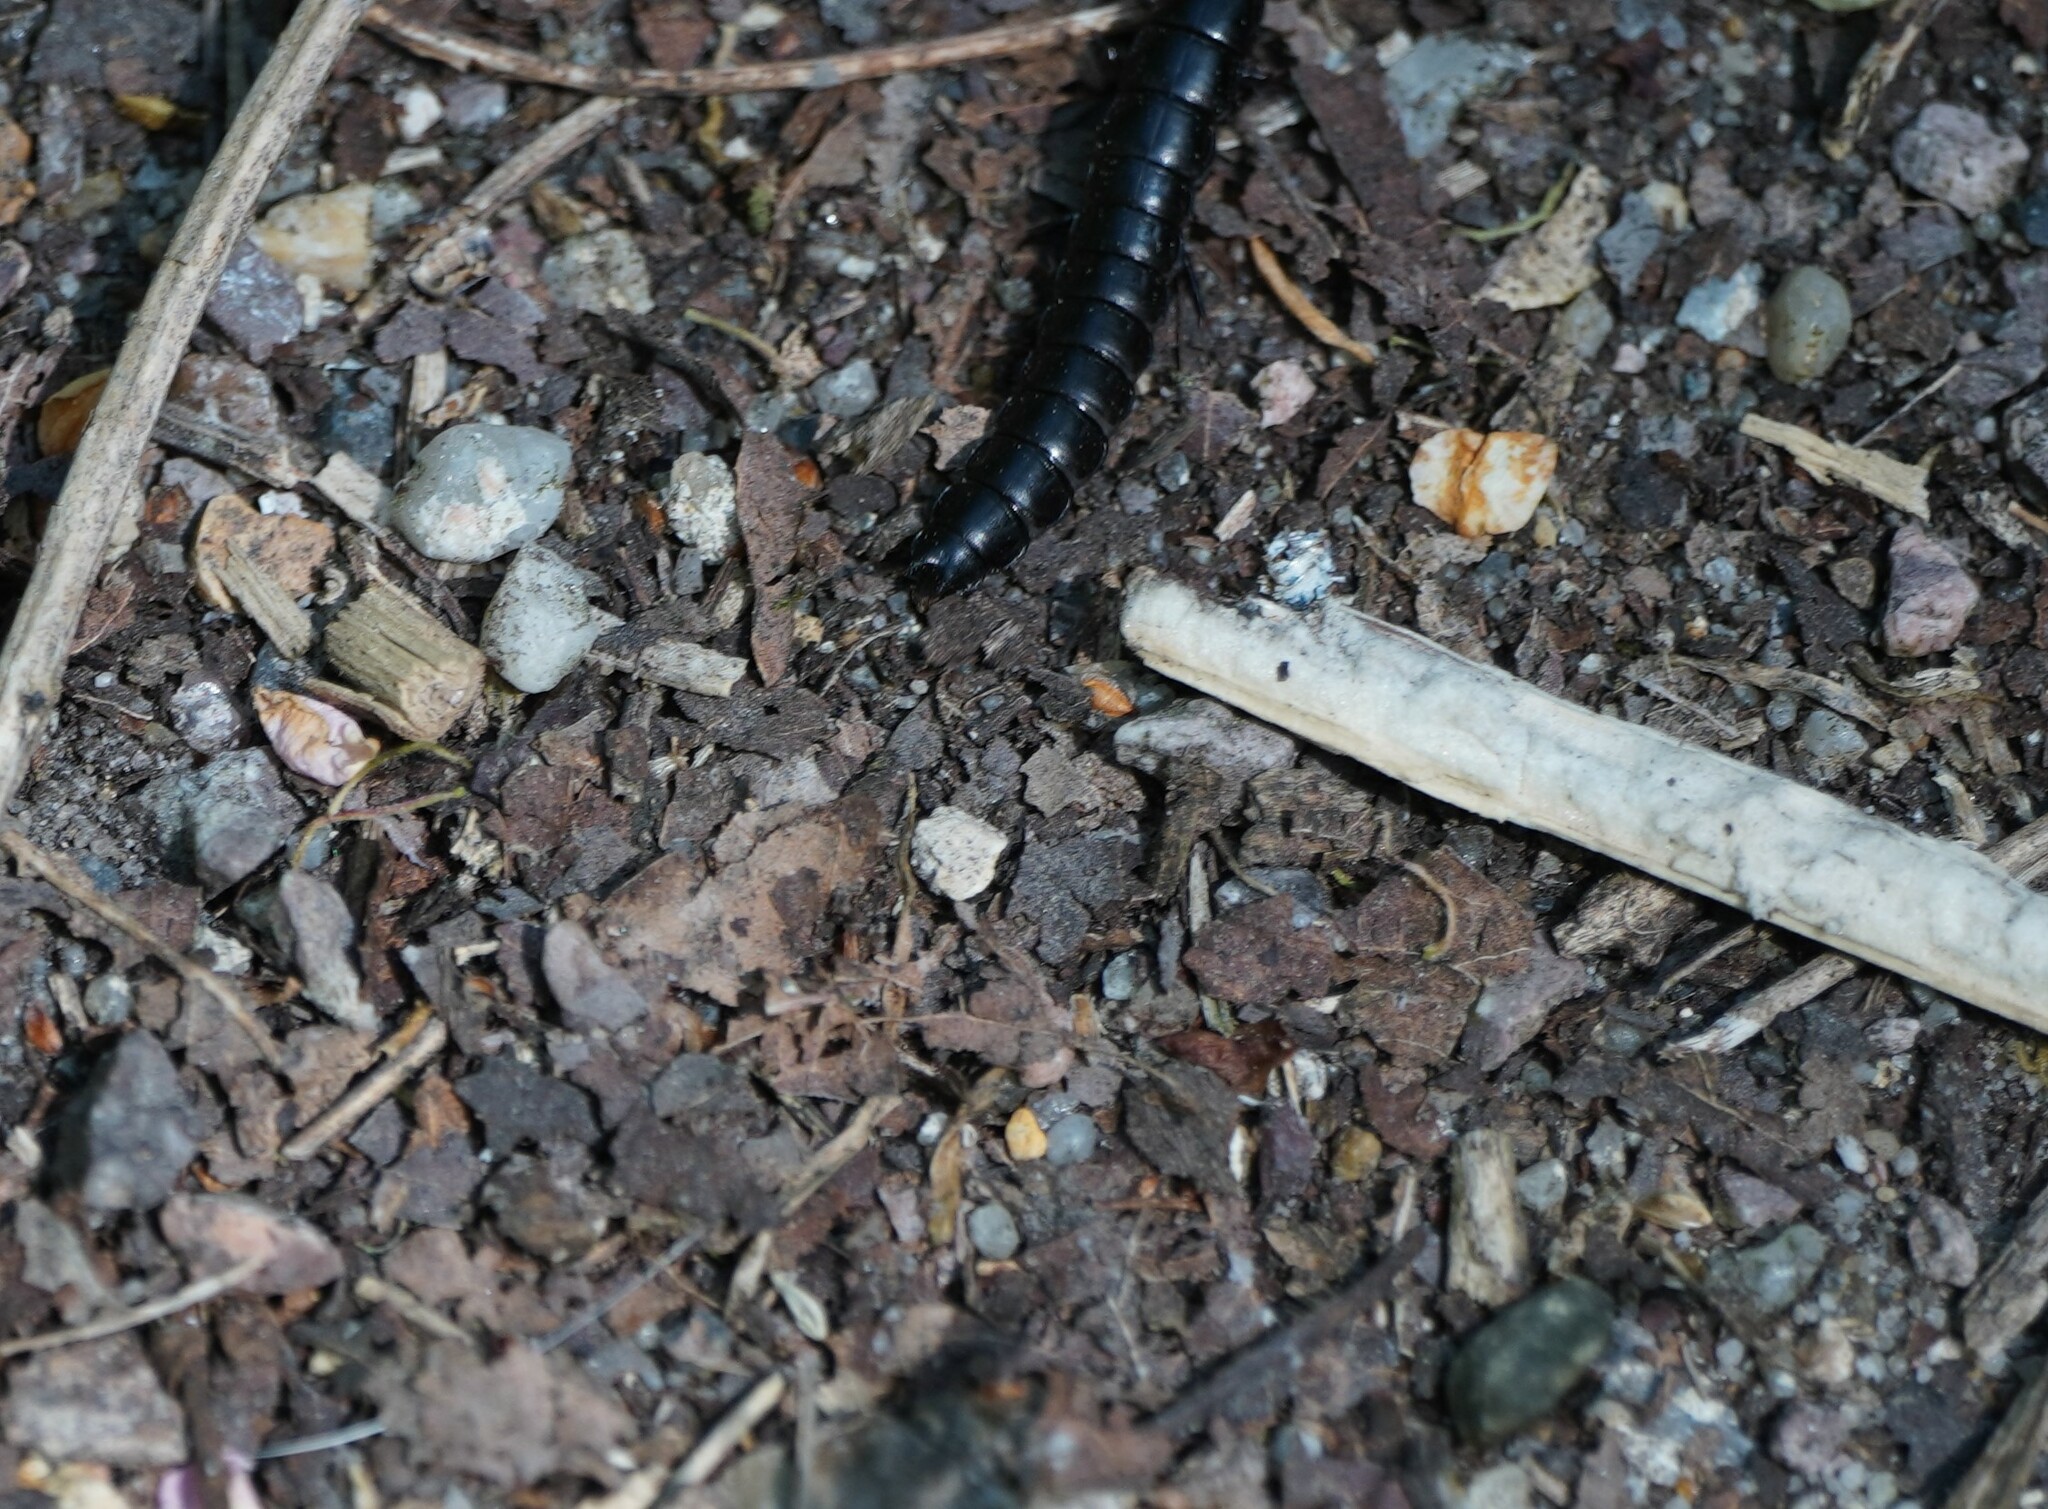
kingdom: Animalia
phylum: Arthropoda
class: Insecta
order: Coleoptera
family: Carabidae
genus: Carabus
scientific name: Carabus
